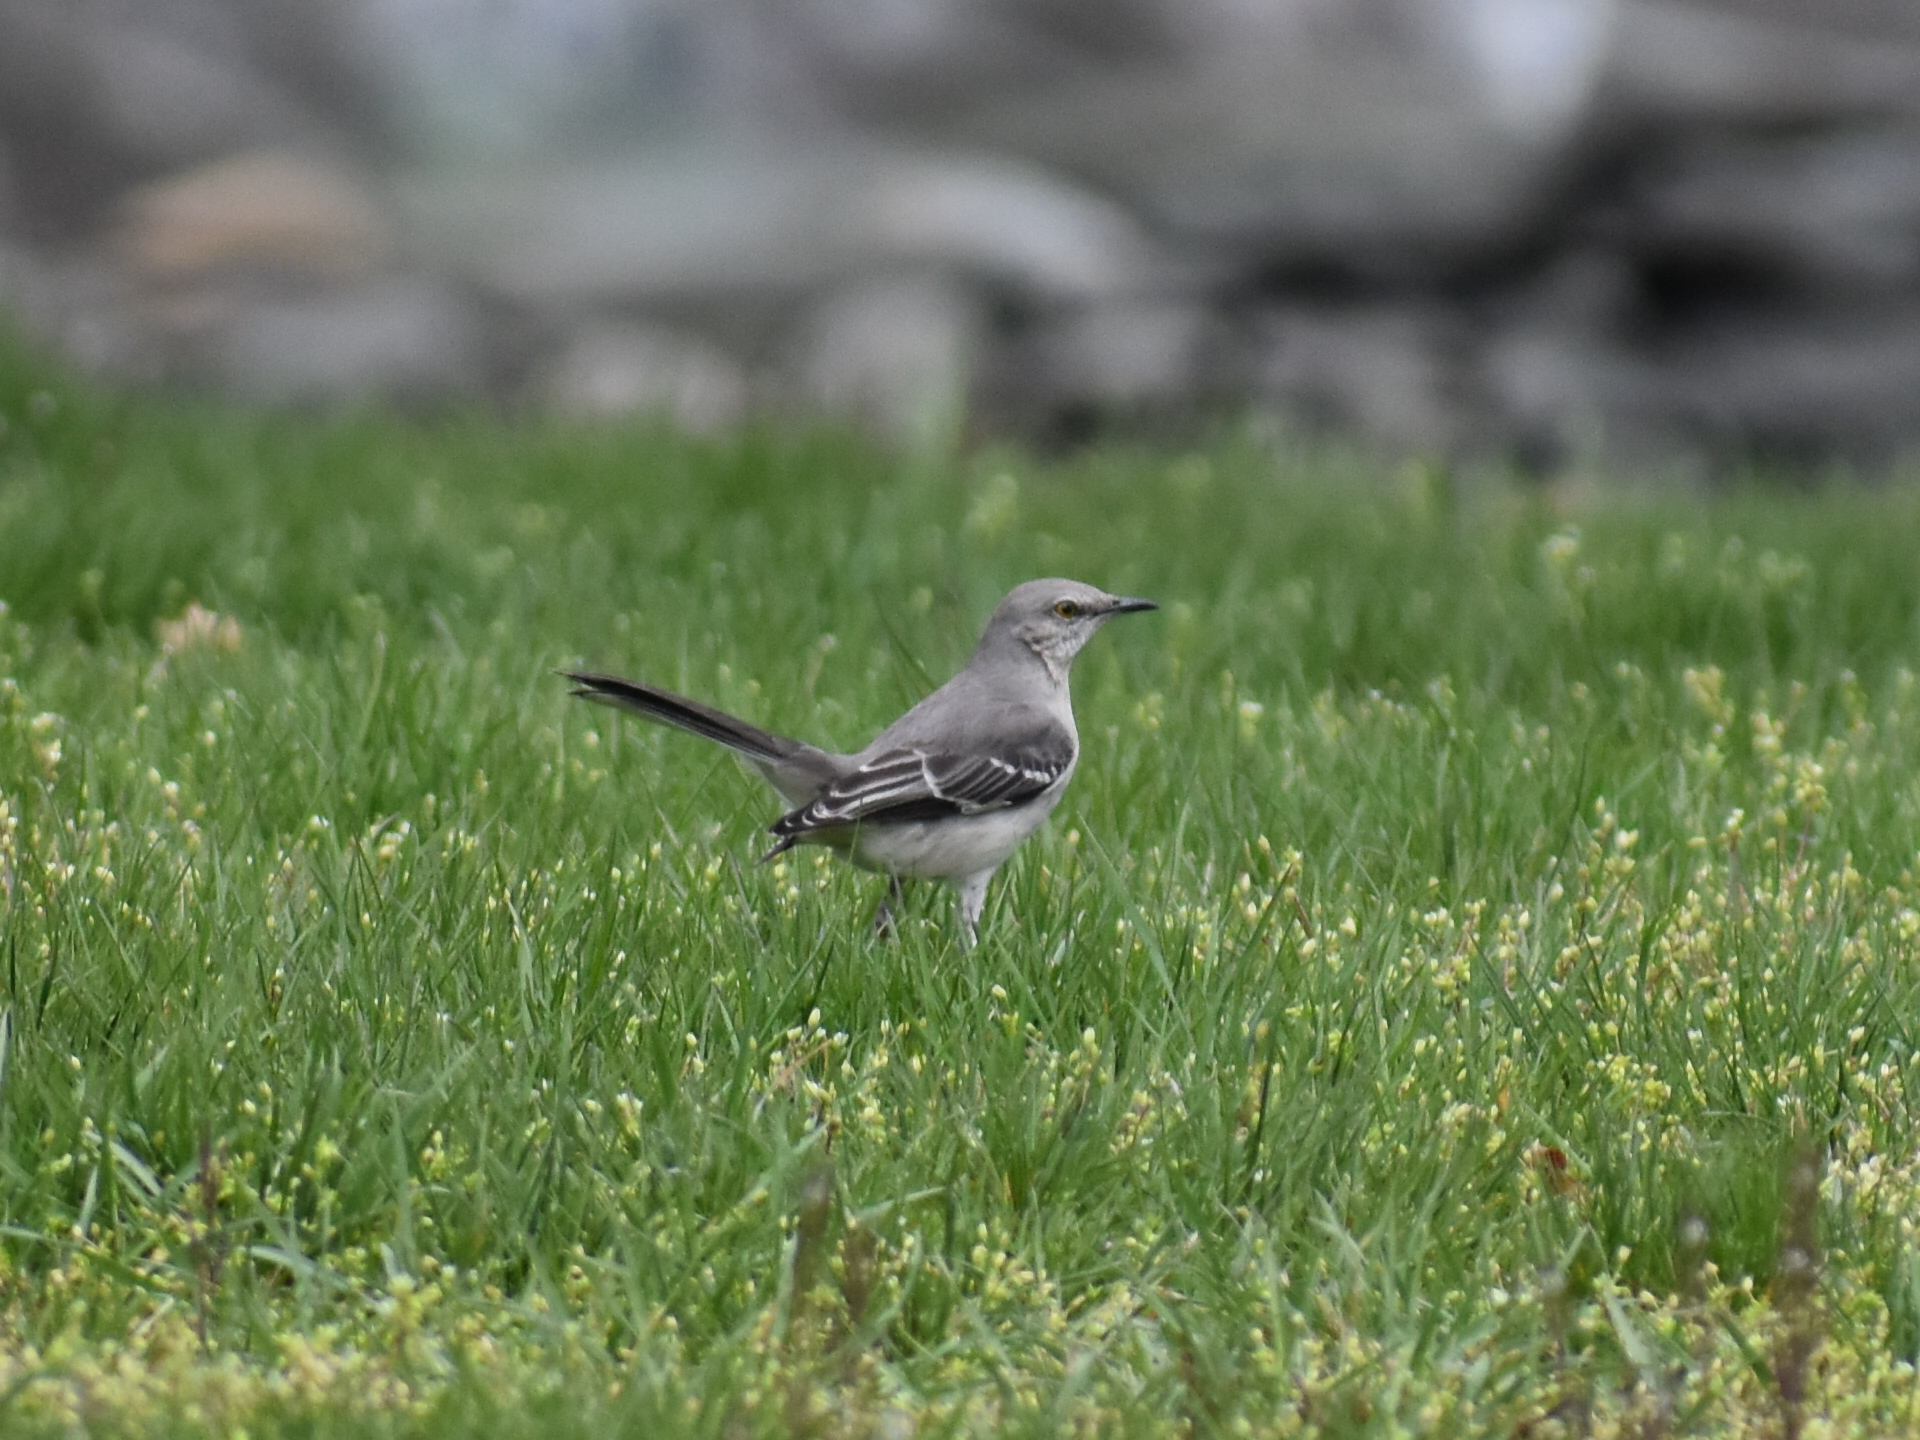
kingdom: Animalia
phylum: Chordata
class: Aves
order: Passeriformes
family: Mimidae
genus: Mimus
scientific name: Mimus polyglottos
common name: Northern mockingbird
